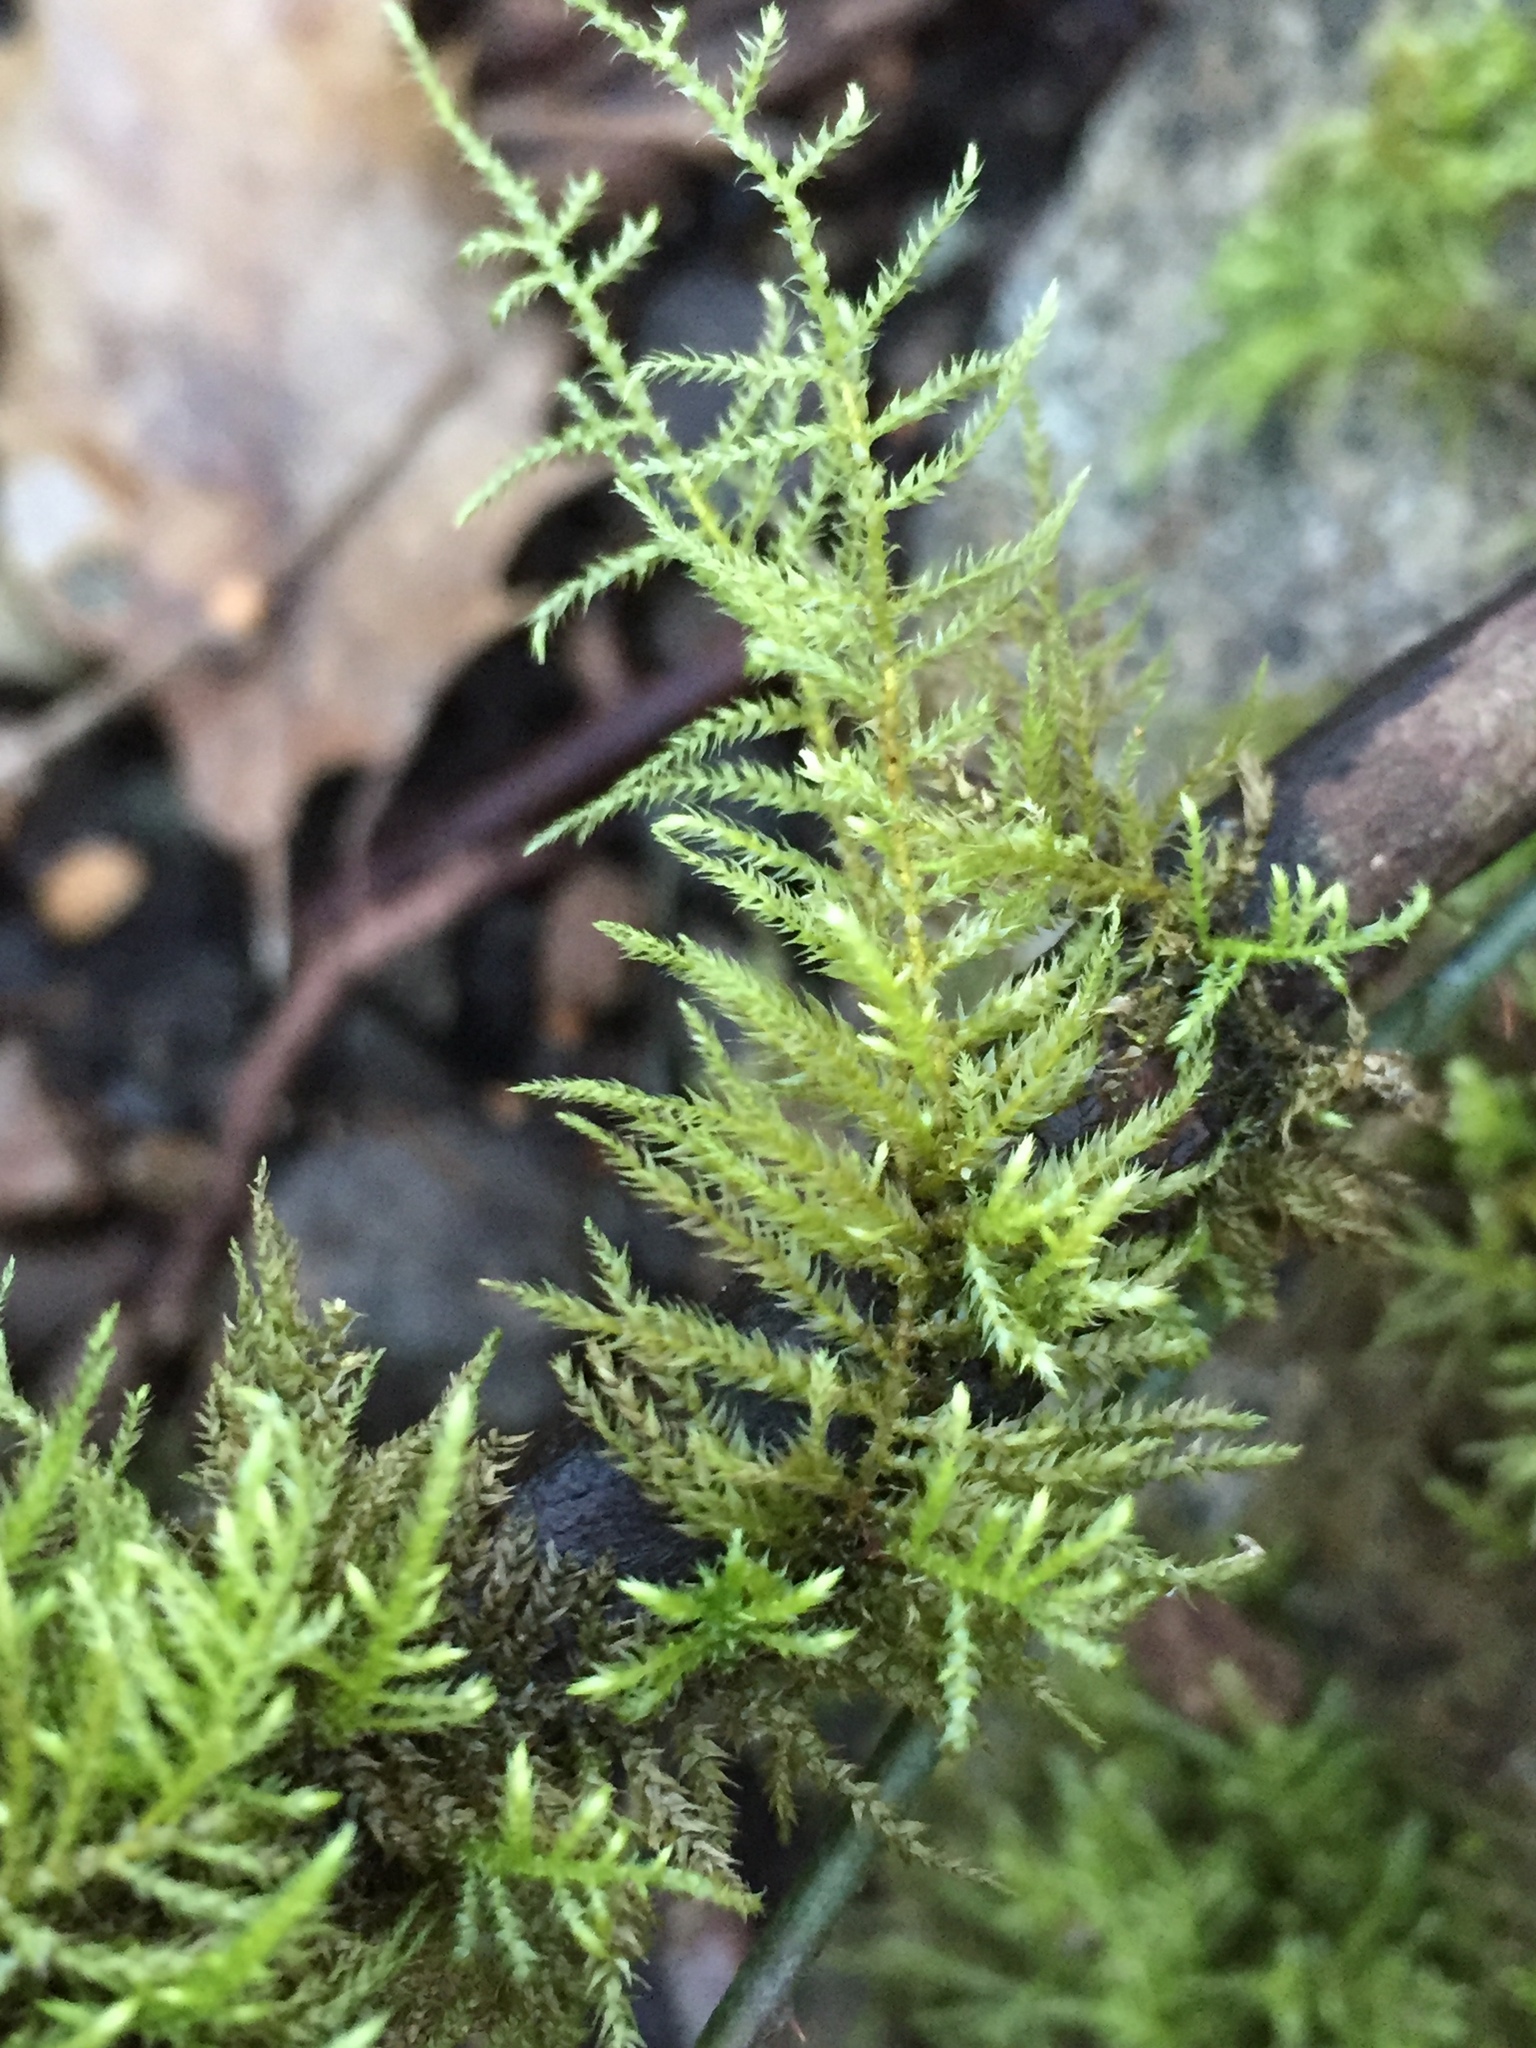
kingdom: Plantae
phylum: Bryophyta
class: Bryopsida
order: Hypnales
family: Brachytheciaceae
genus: Kindbergia
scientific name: Kindbergia oregana
